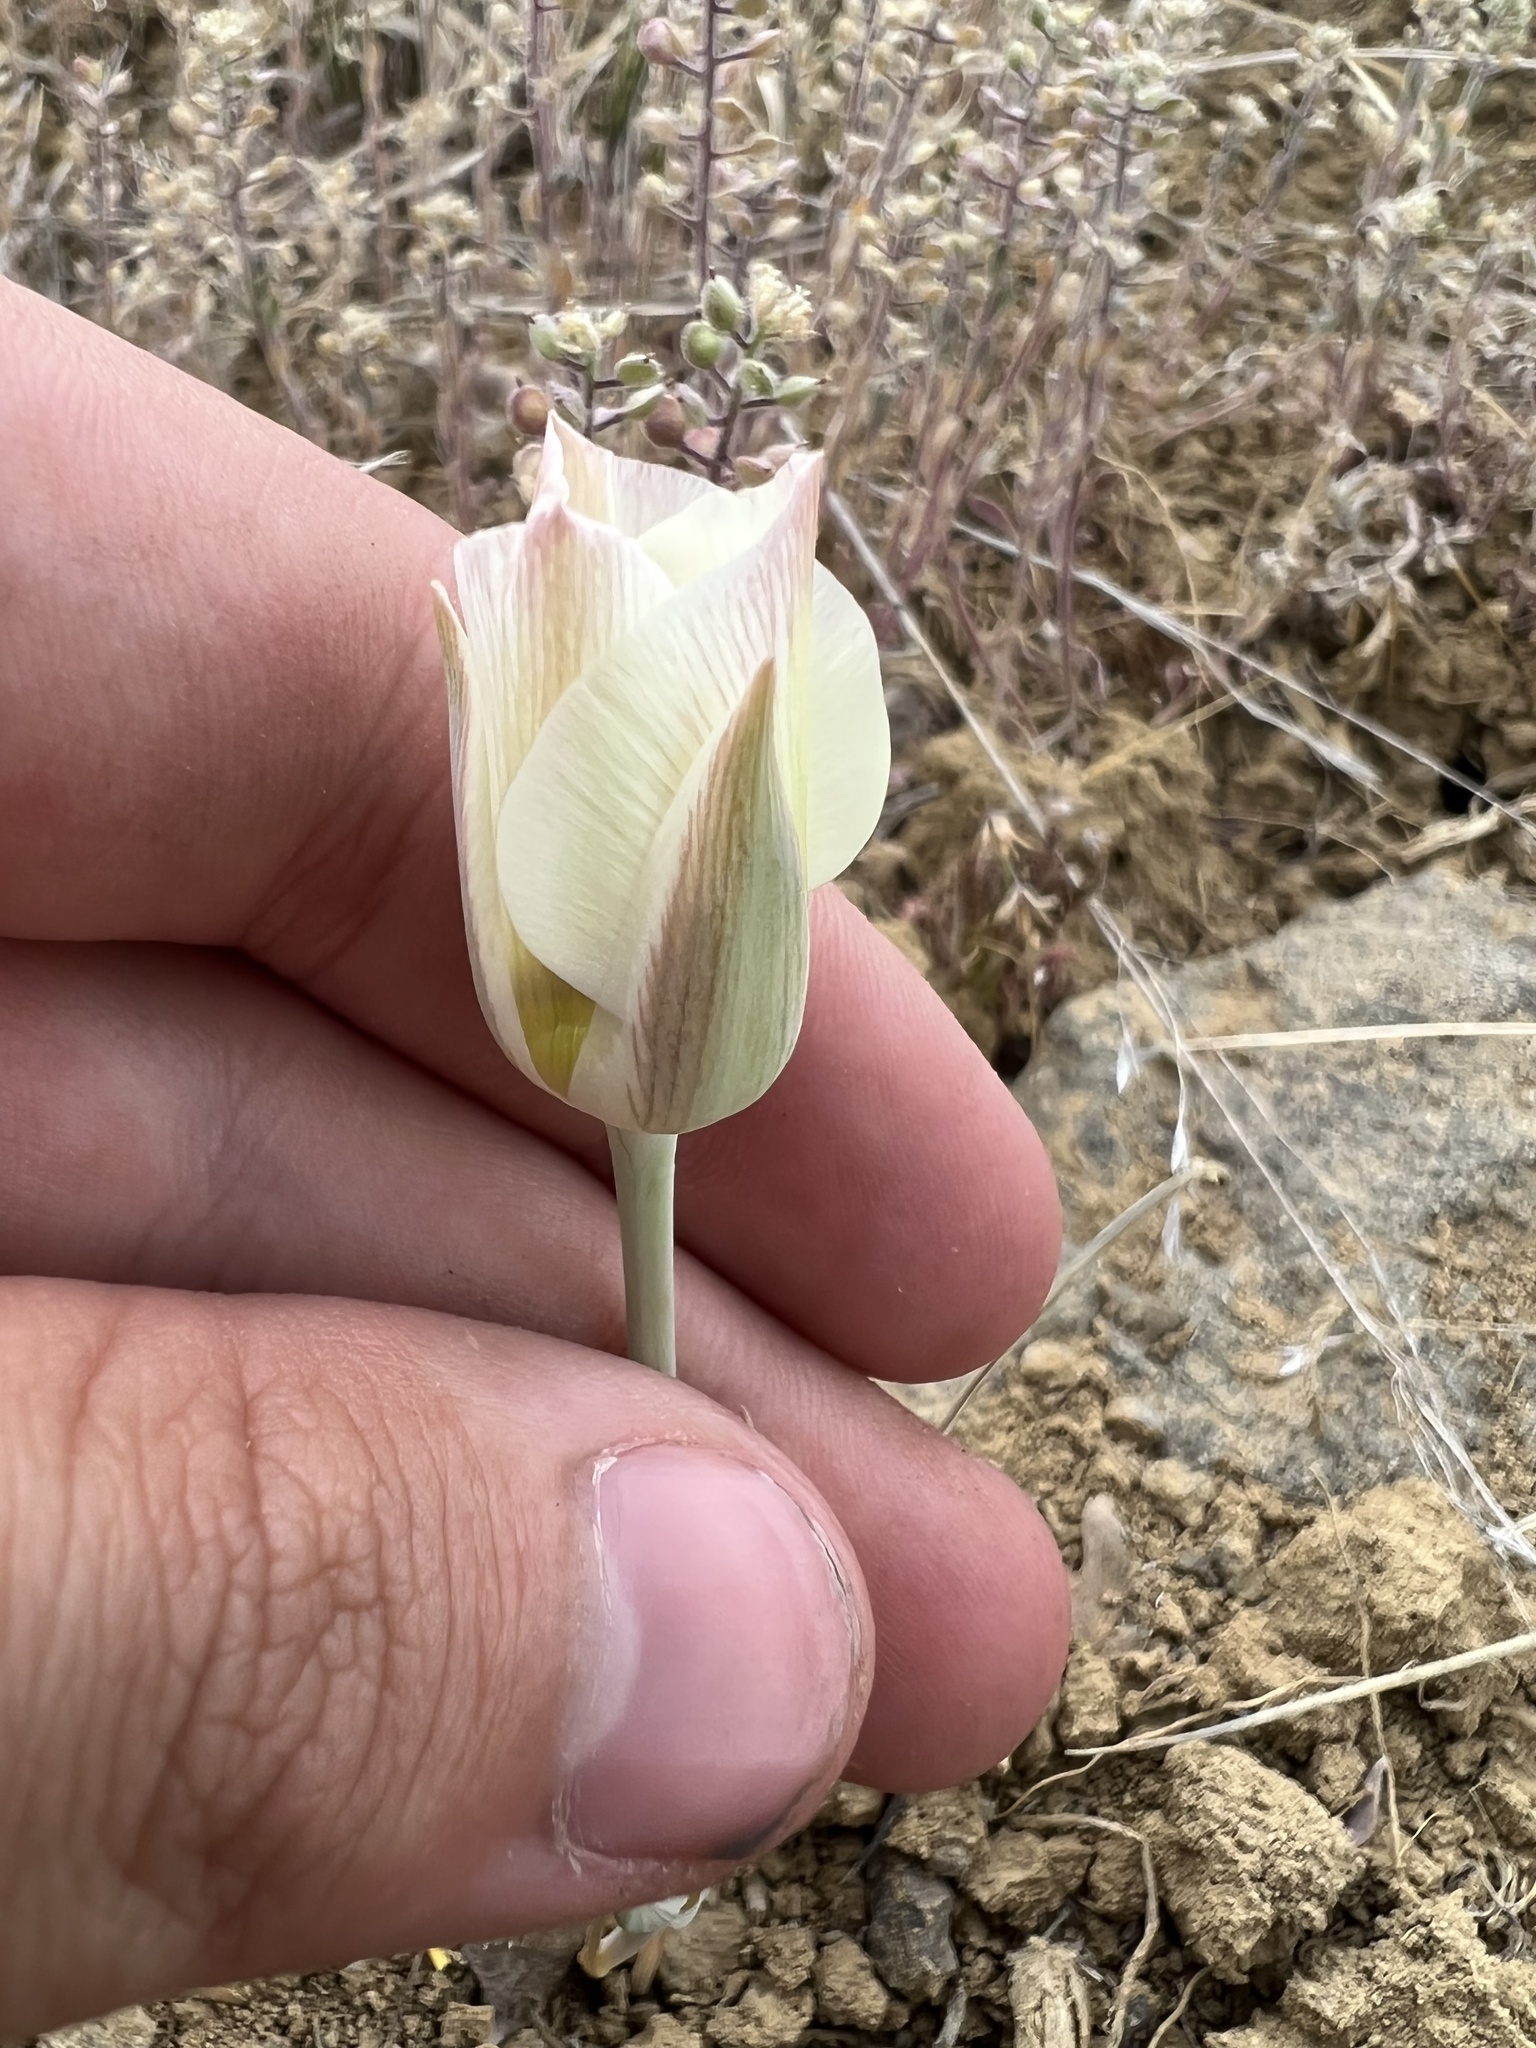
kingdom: Plantae
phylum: Tracheophyta
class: Liliopsida
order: Liliales
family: Liliaceae
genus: Calochortus
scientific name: Calochortus nuttallii
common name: Sego-lily
